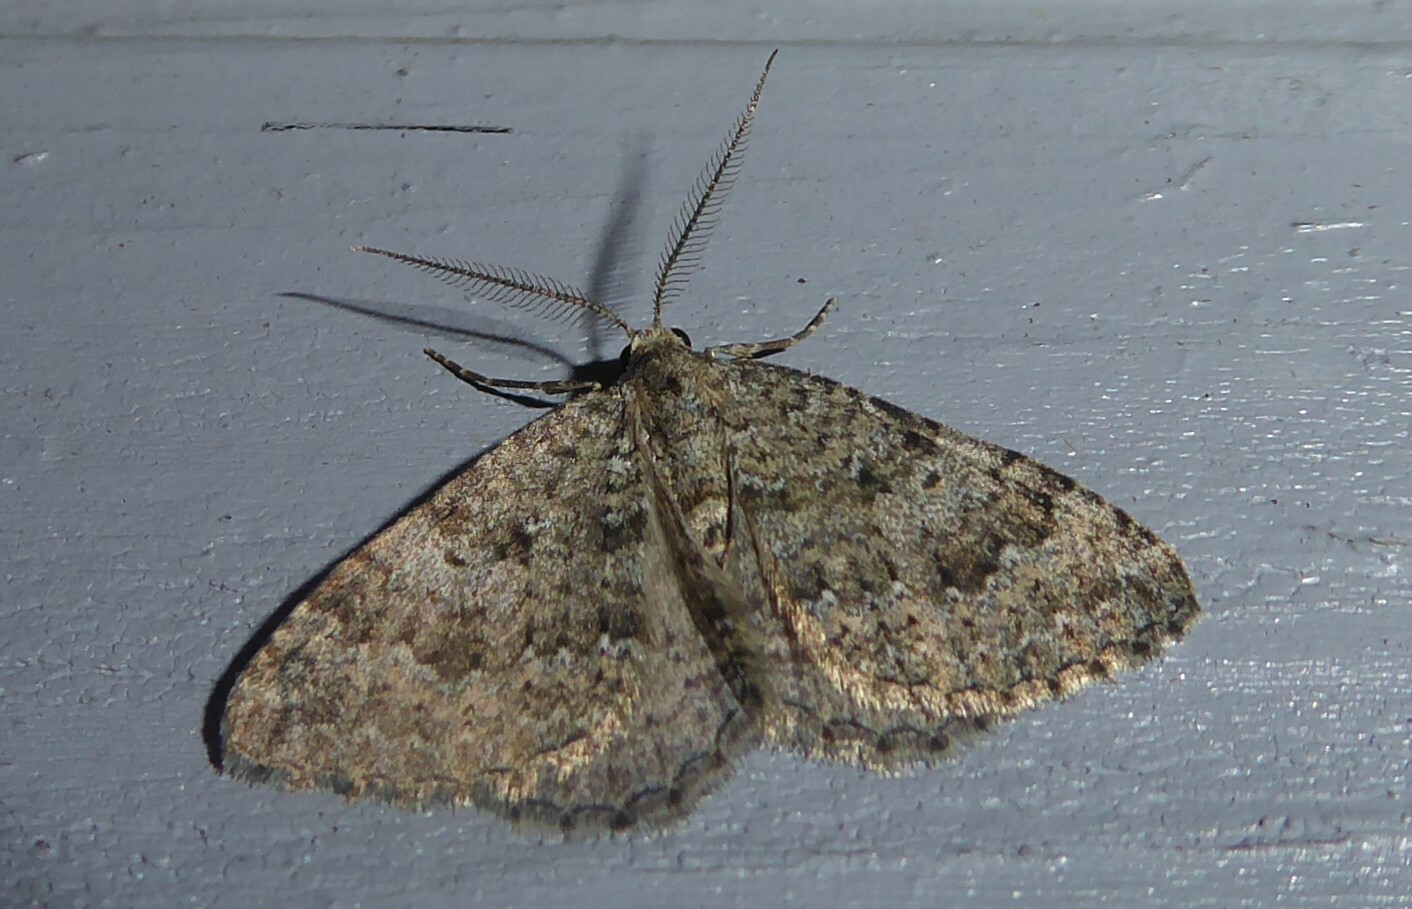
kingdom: Animalia
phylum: Arthropoda
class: Insecta
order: Lepidoptera
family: Geometridae
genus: Helastia
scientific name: Helastia corcularia
